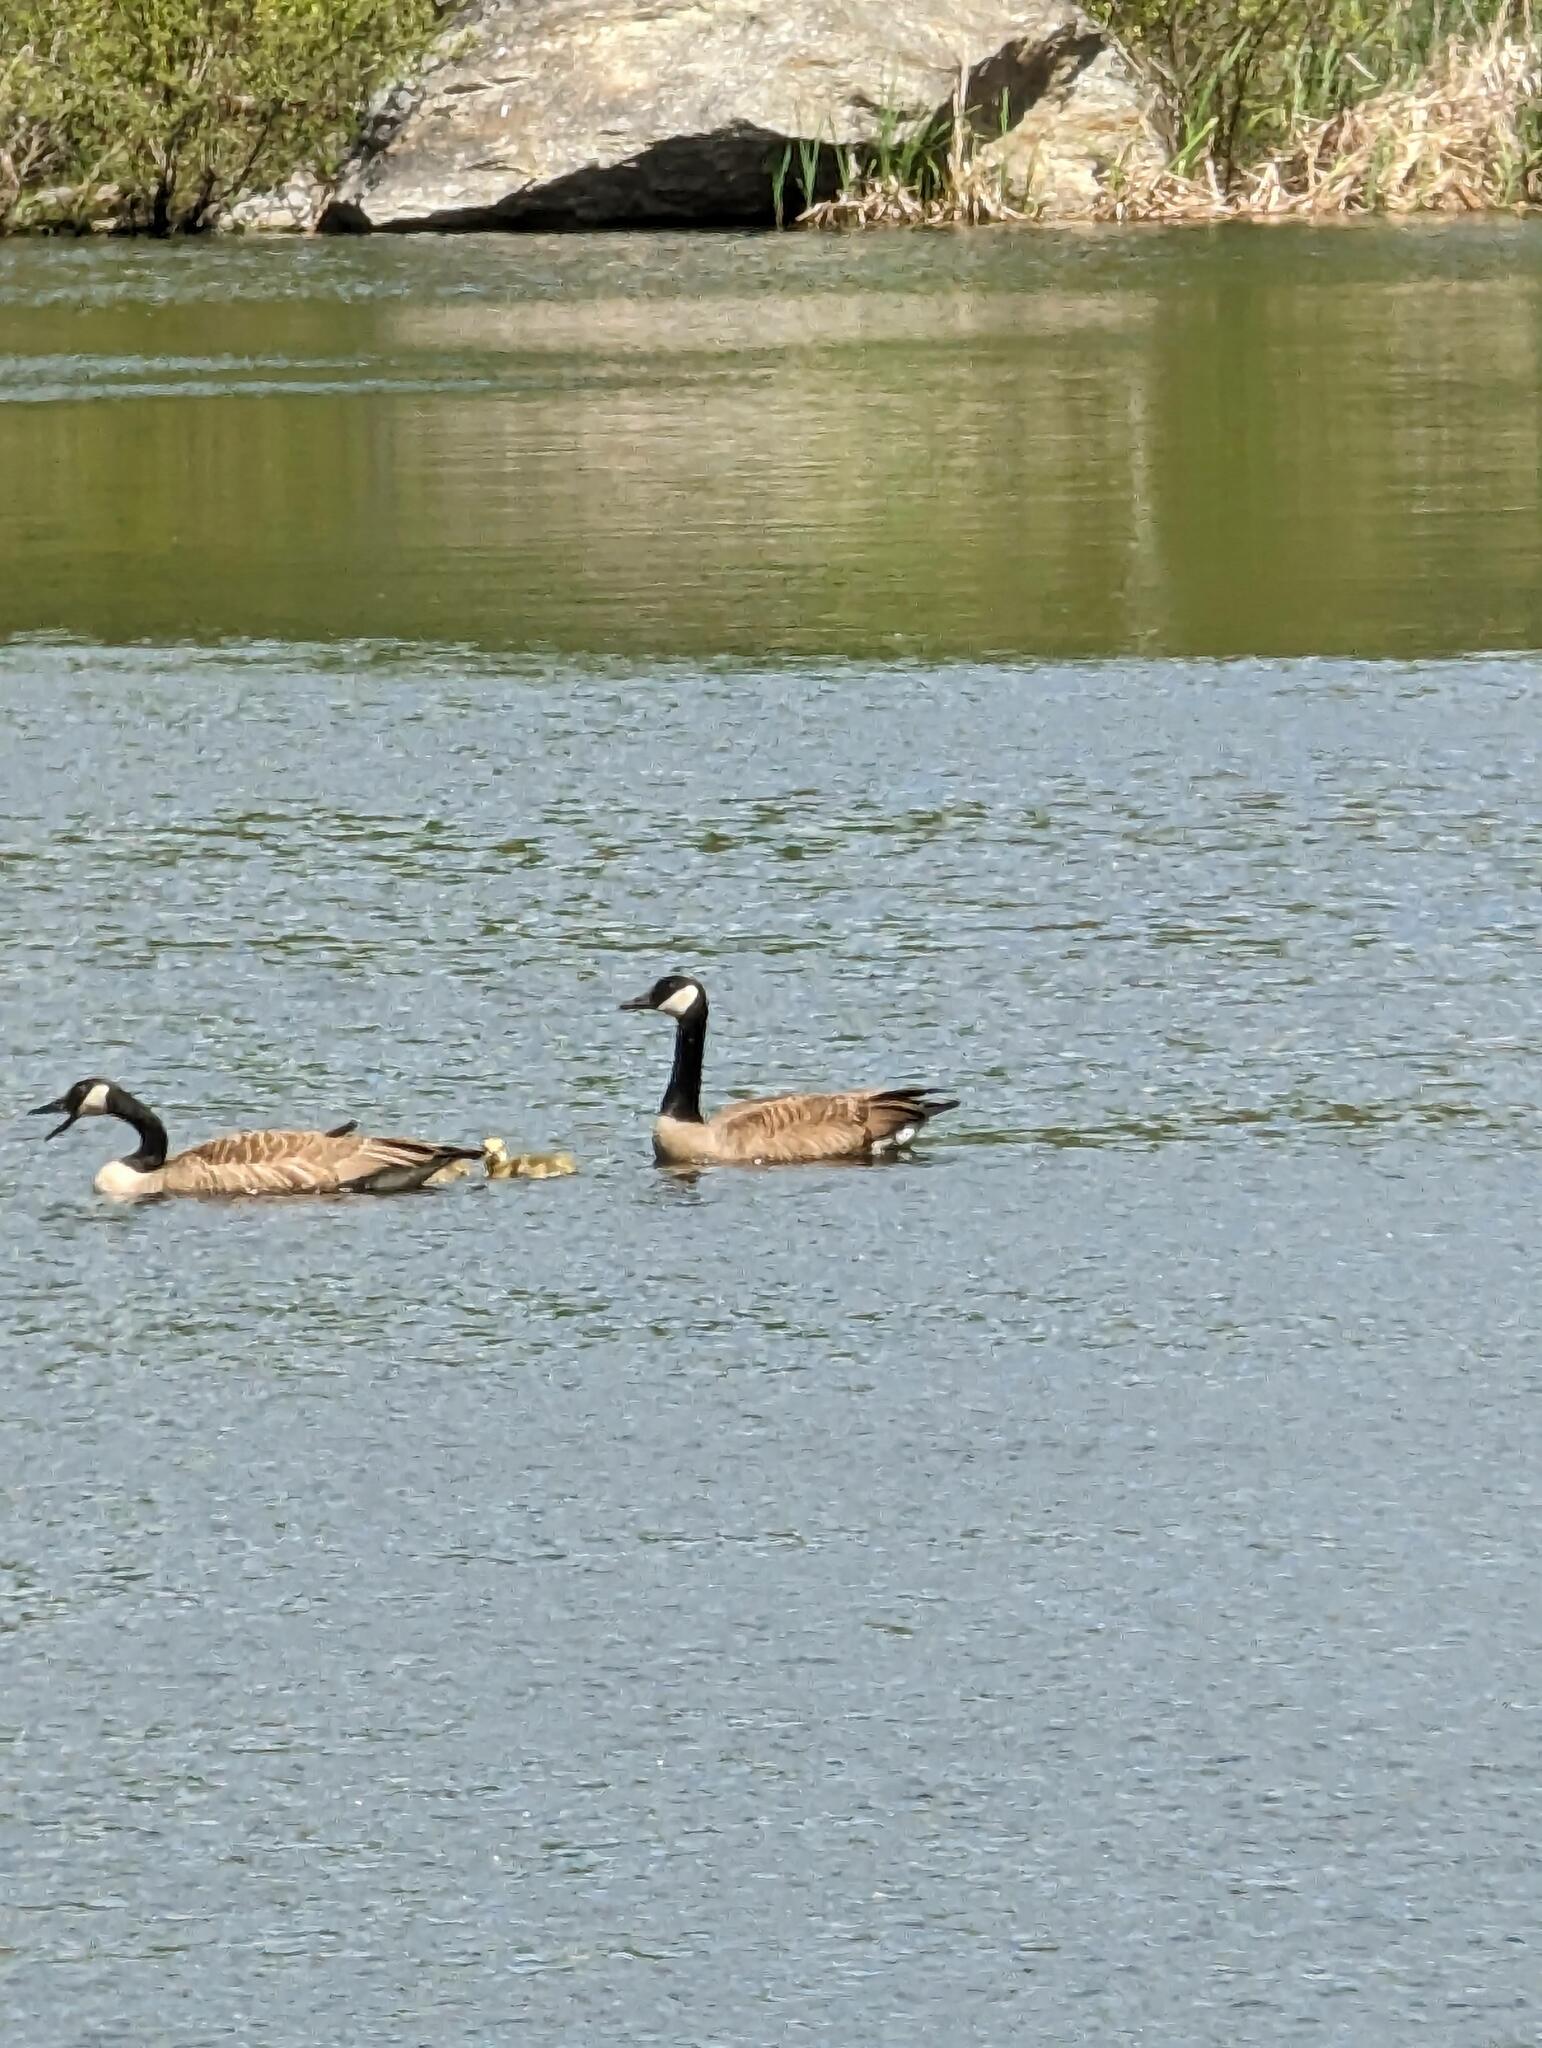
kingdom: Animalia
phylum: Chordata
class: Aves
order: Anseriformes
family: Anatidae
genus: Branta
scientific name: Branta canadensis
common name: Canada goose
